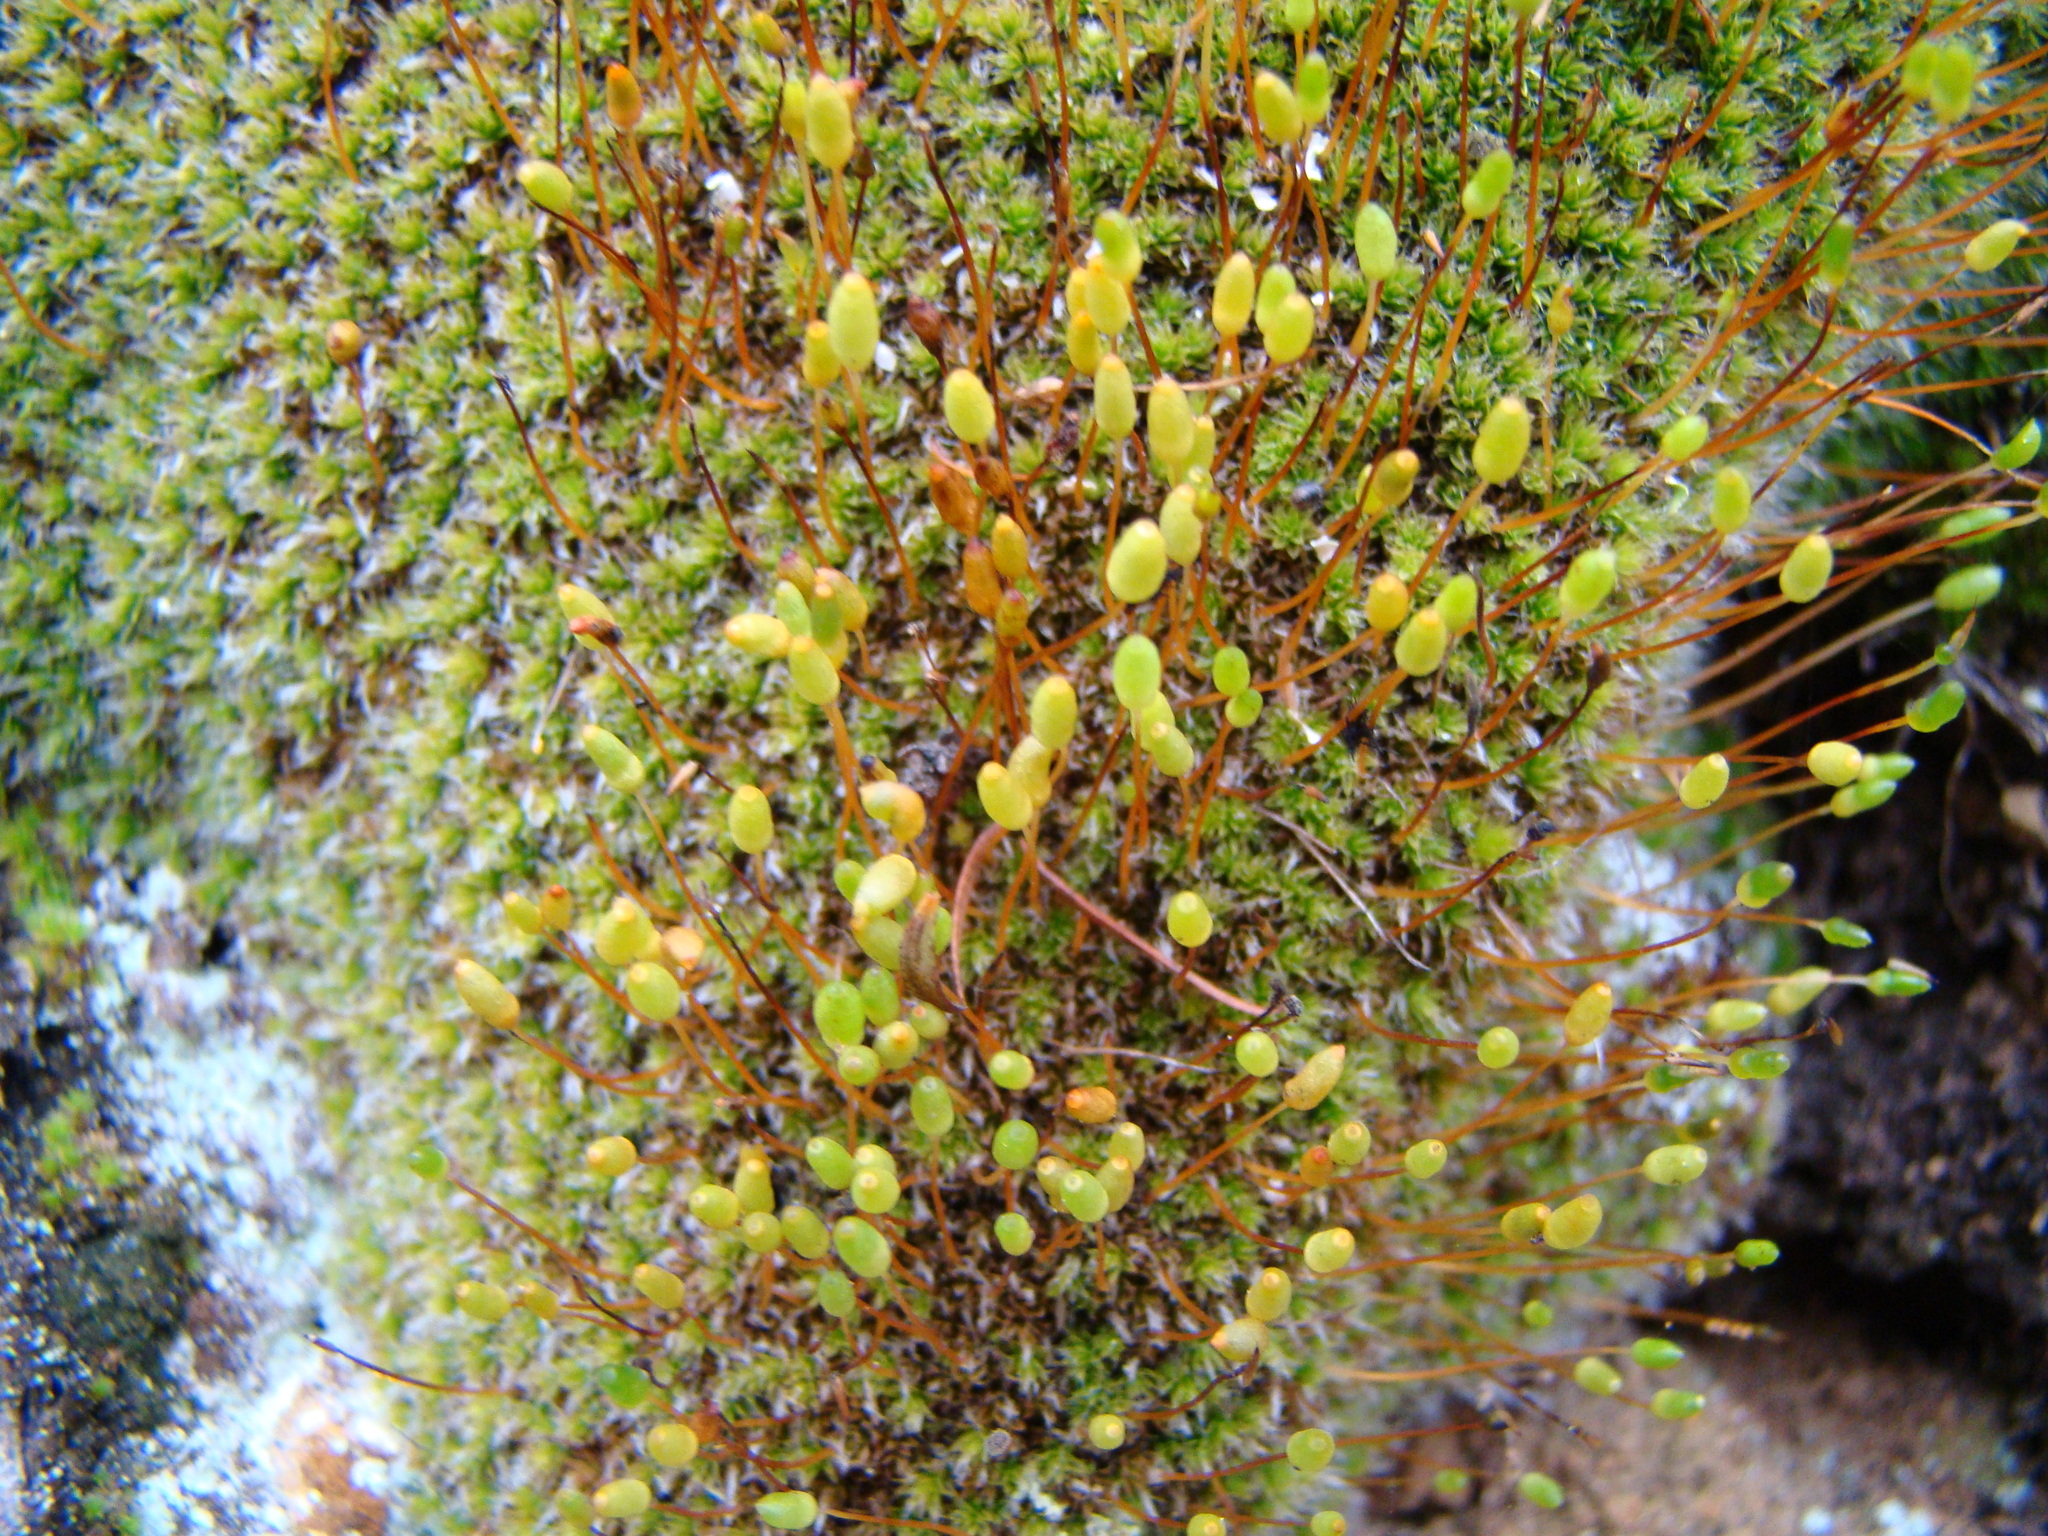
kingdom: Plantae
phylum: Bryophyta
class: Bryopsida
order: Bryales
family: Leptostomataceae
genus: Leptostomum
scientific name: Leptostomum macrocarpon
